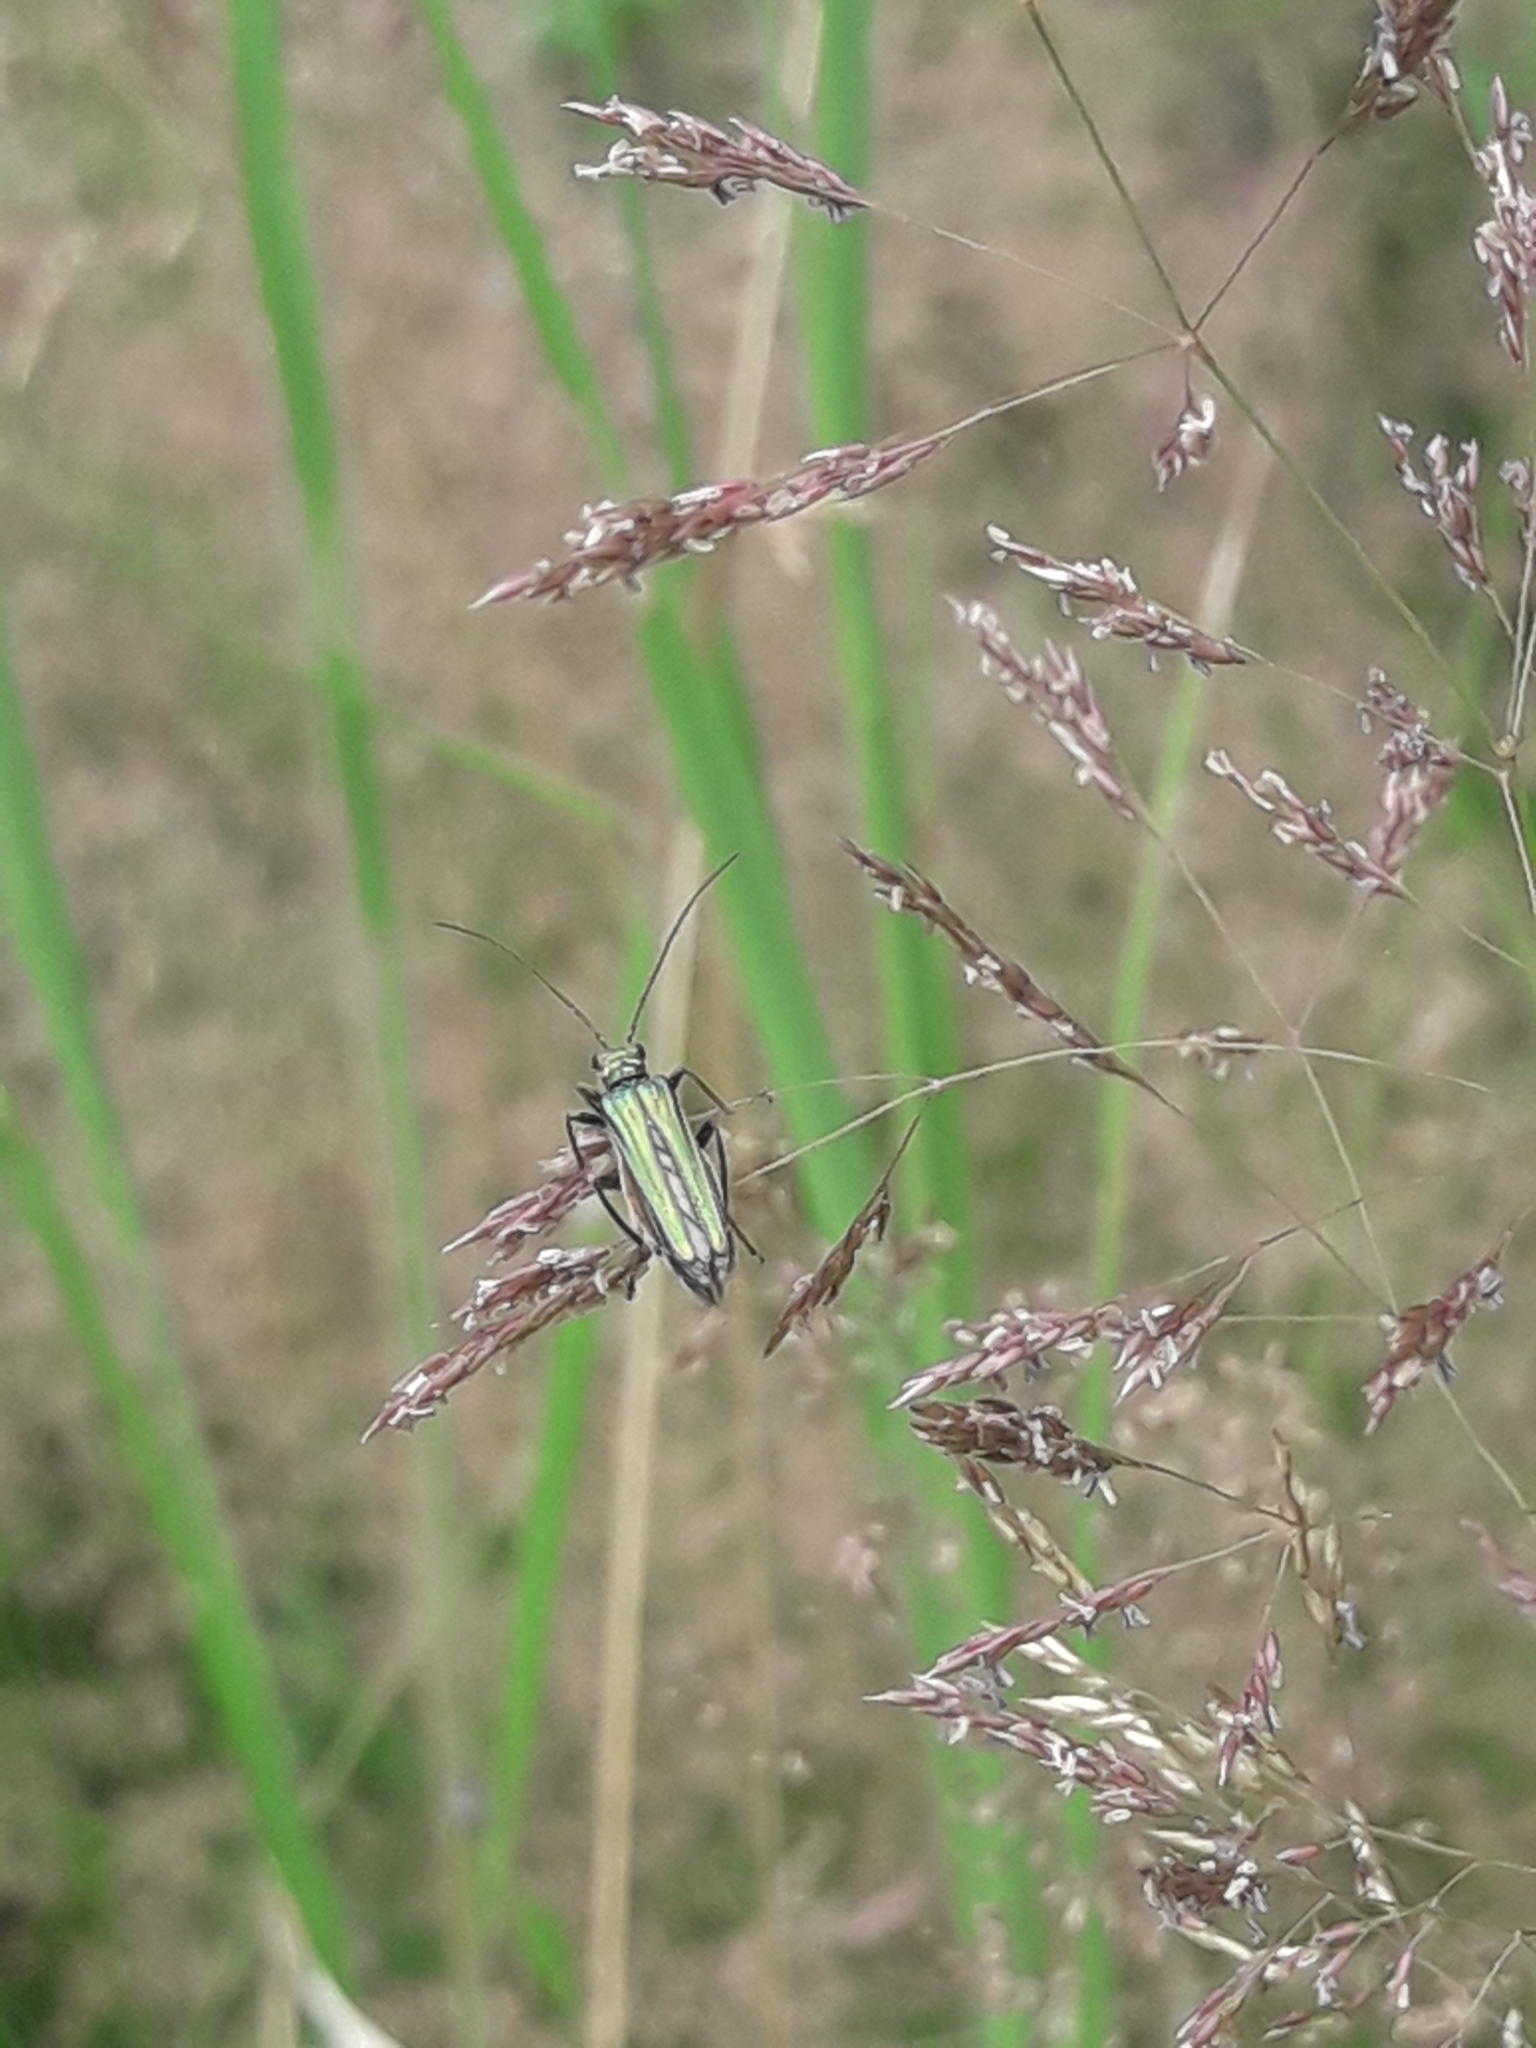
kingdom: Animalia
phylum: Arthropoda
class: Insecta
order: Coleoptera
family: Oedemeridae
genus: Oedemera
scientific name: Oedemera nobilis
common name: Swollen-thighed beetle
